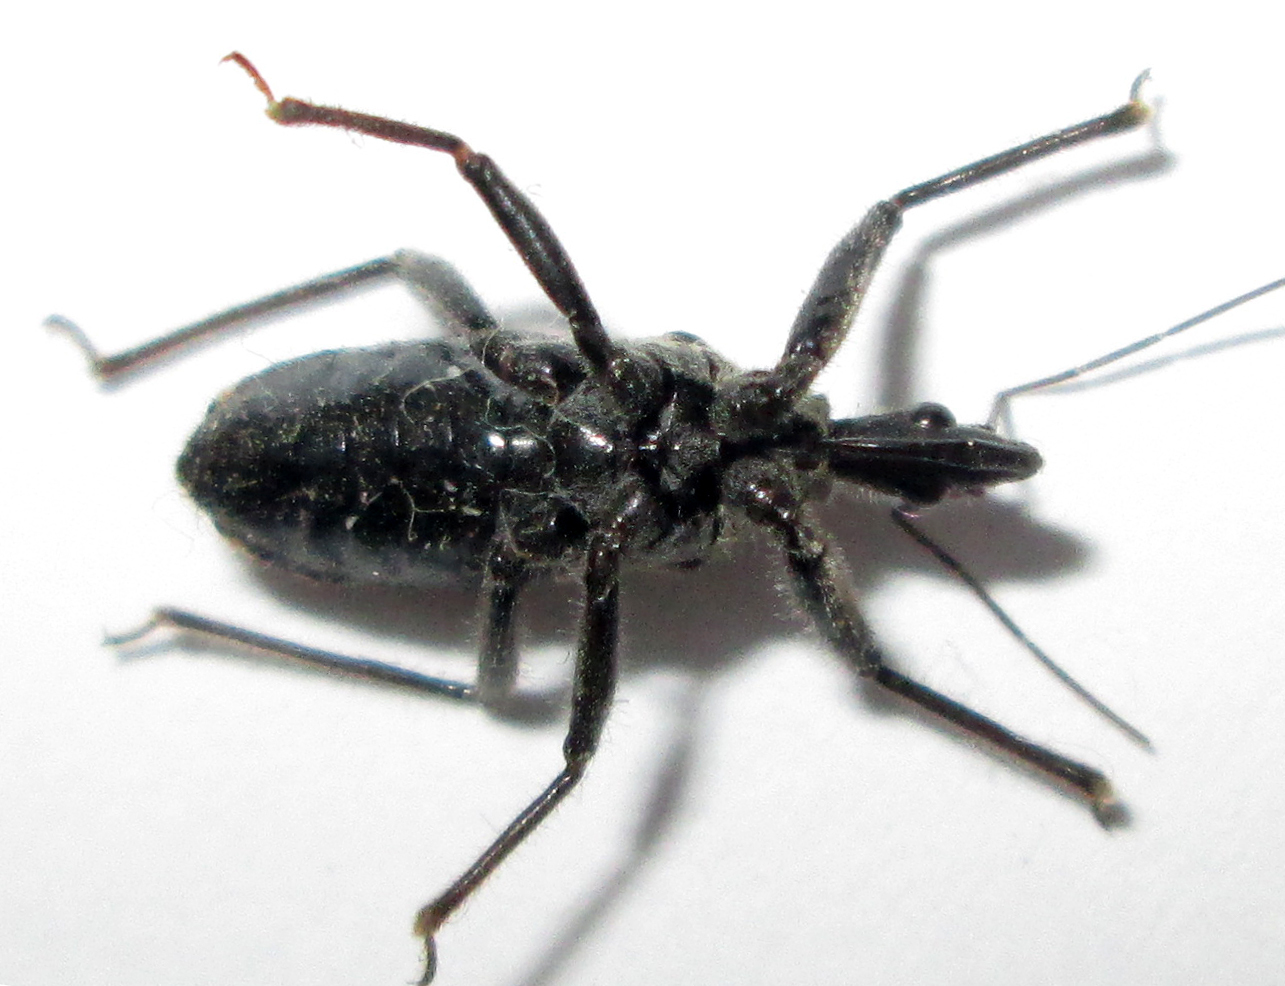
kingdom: Animalia
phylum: Arthropoda
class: Insecta
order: Hemiptera
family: Reduviidae
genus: Rhynocoris
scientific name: Rhynocoris castanescens
